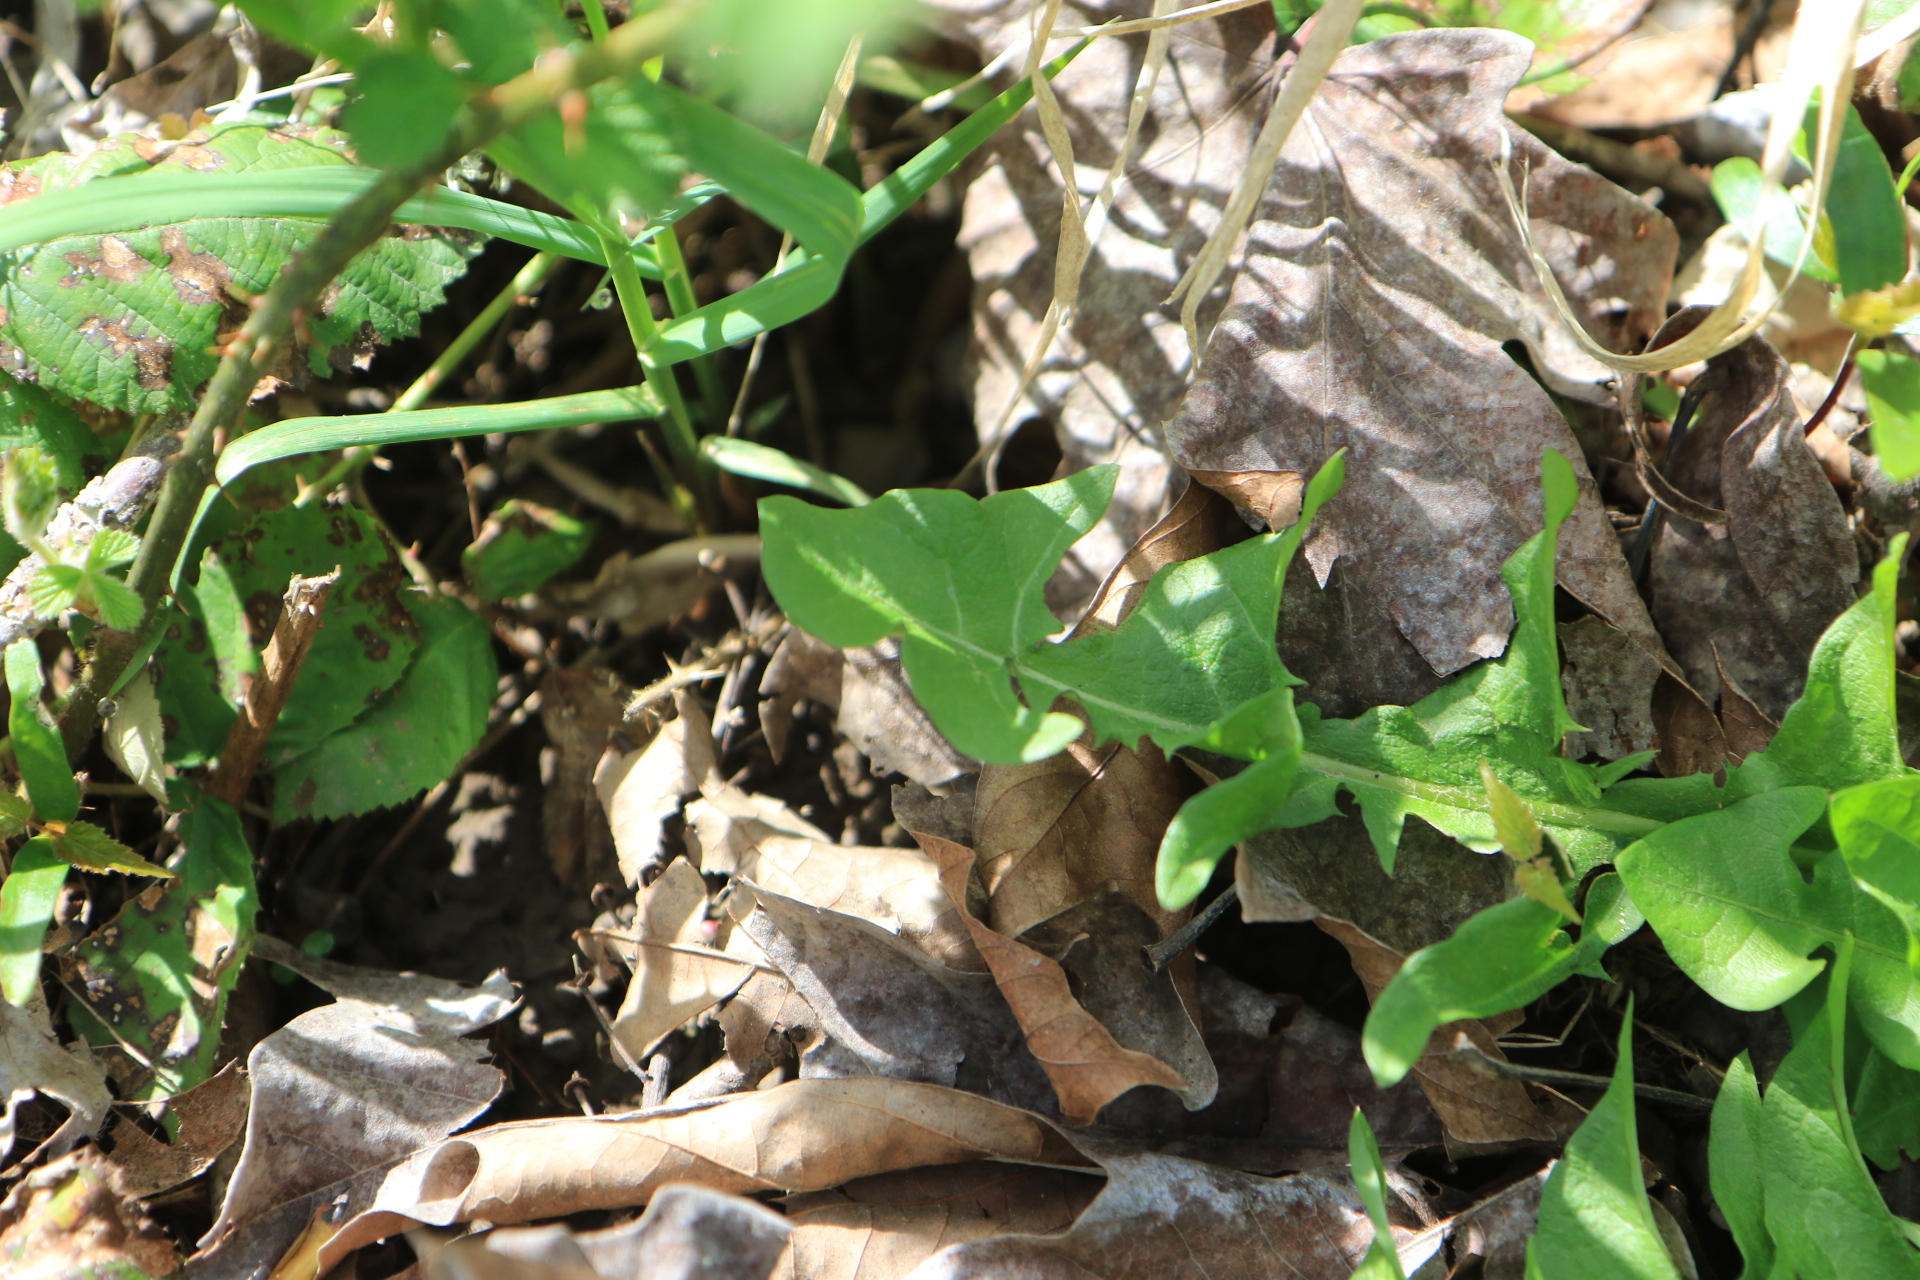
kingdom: Plantae
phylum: Tracheophyta
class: Magnoliopsida
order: Asterales
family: Asteraceae
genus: Taraxacum
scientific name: Taraxacum officinale
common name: Common dandelion
